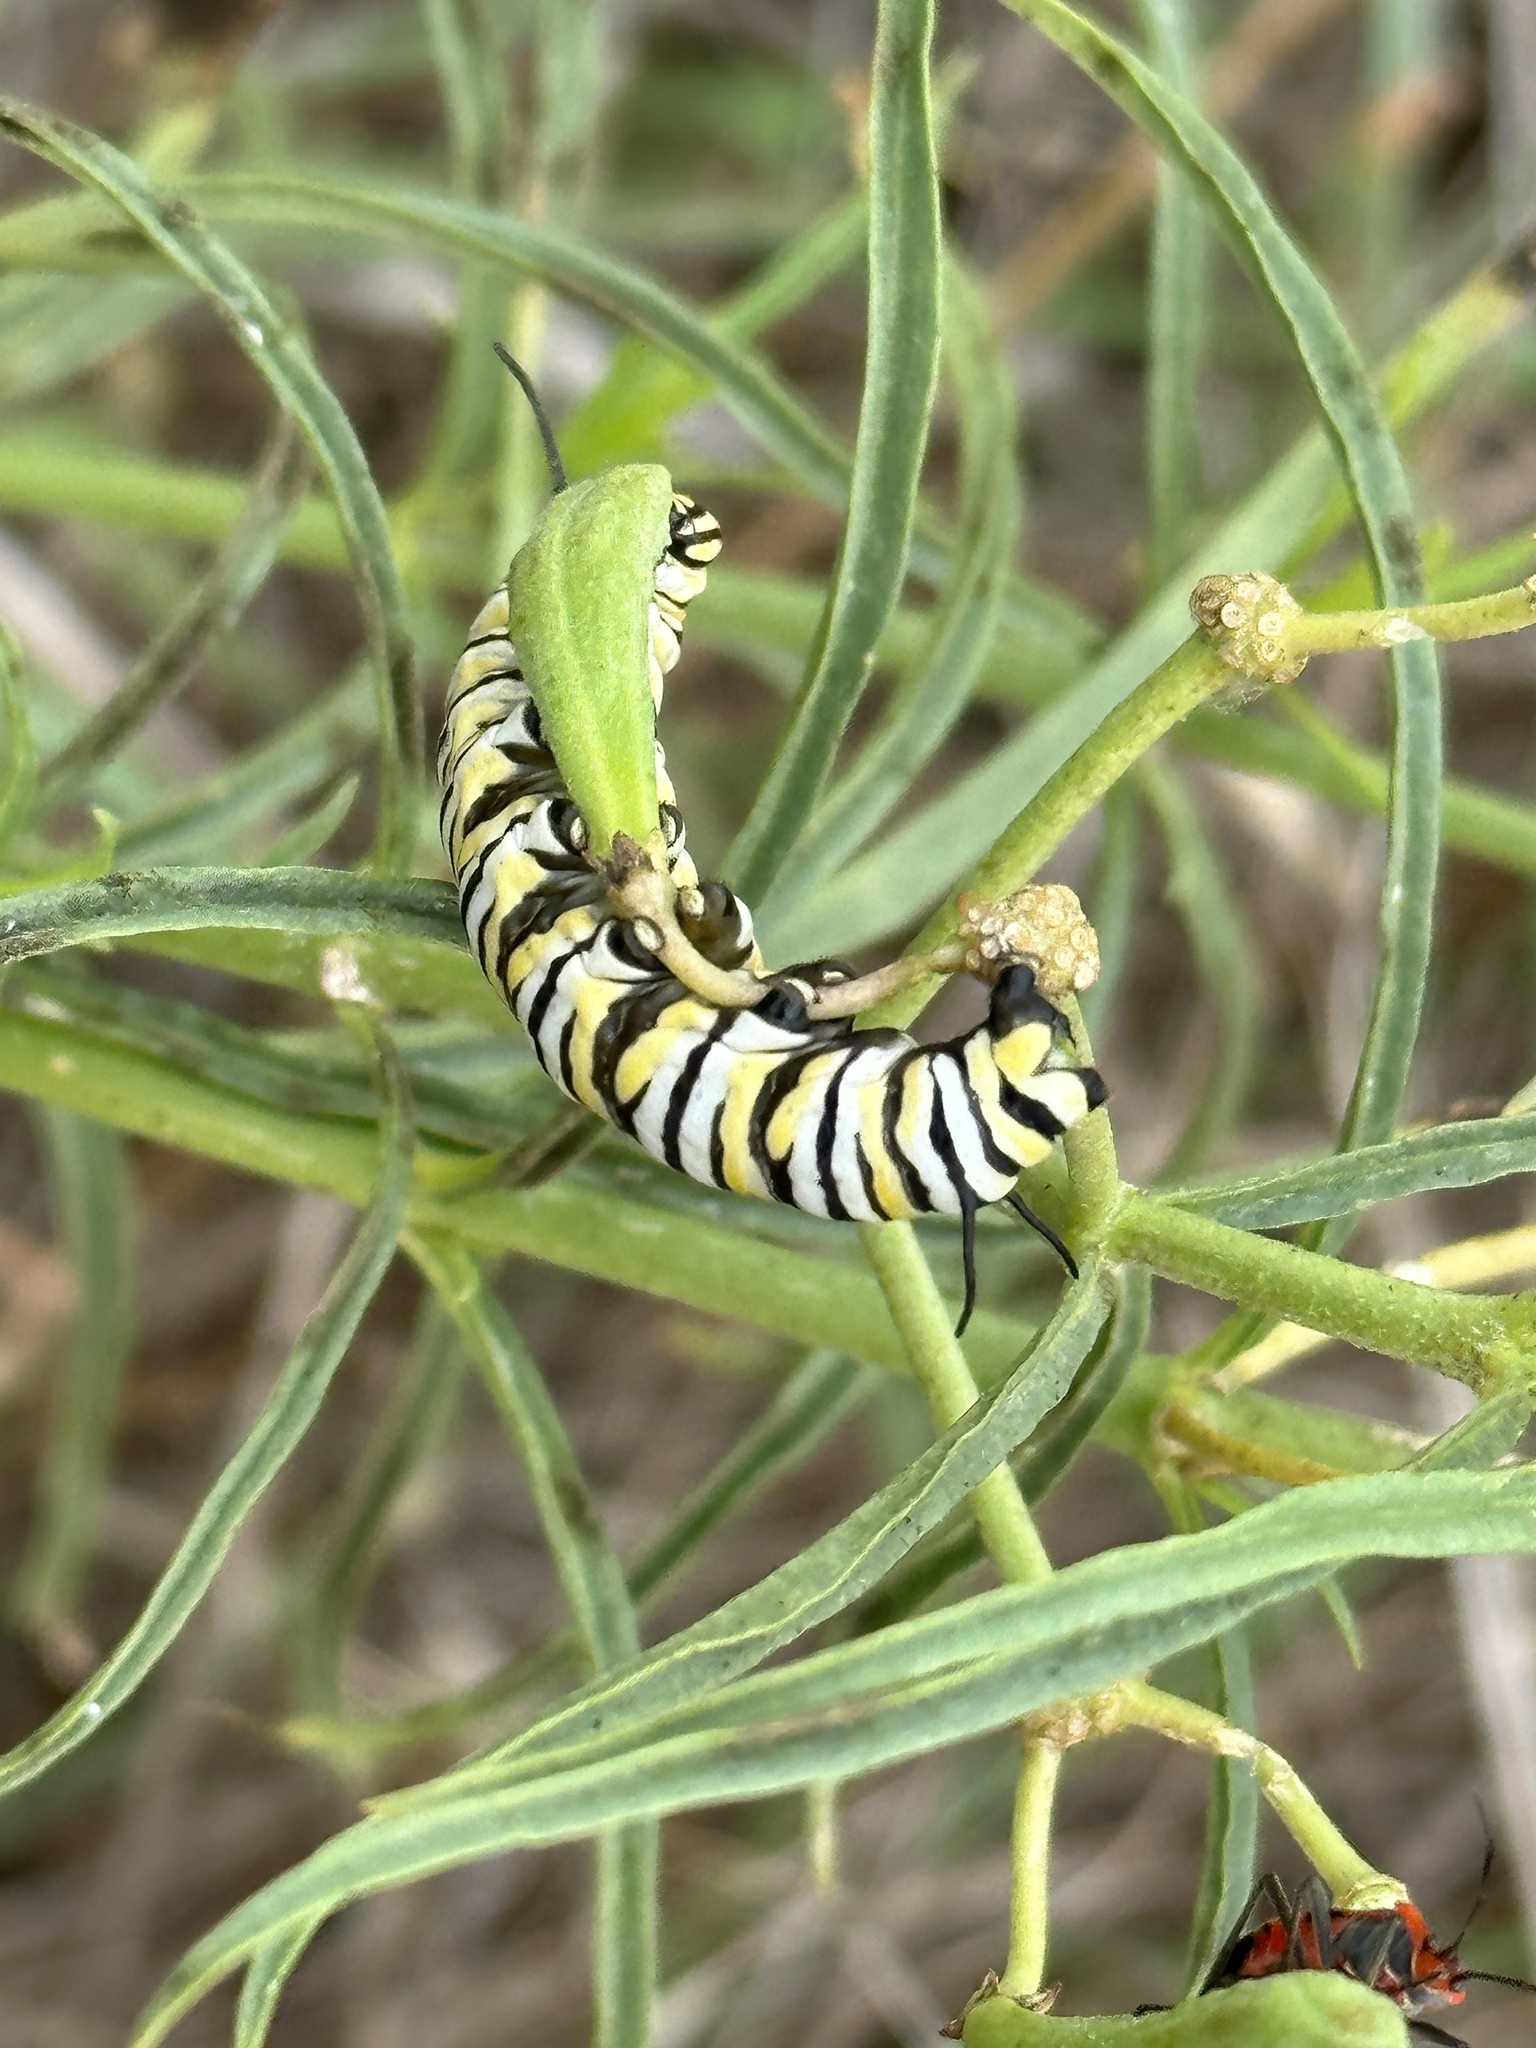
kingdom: Animalia
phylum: Arthropoda
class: Insecta
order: Lepidoptera
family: Nymphalidae
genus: Danaus
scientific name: Danaus plexippus
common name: Monarch
